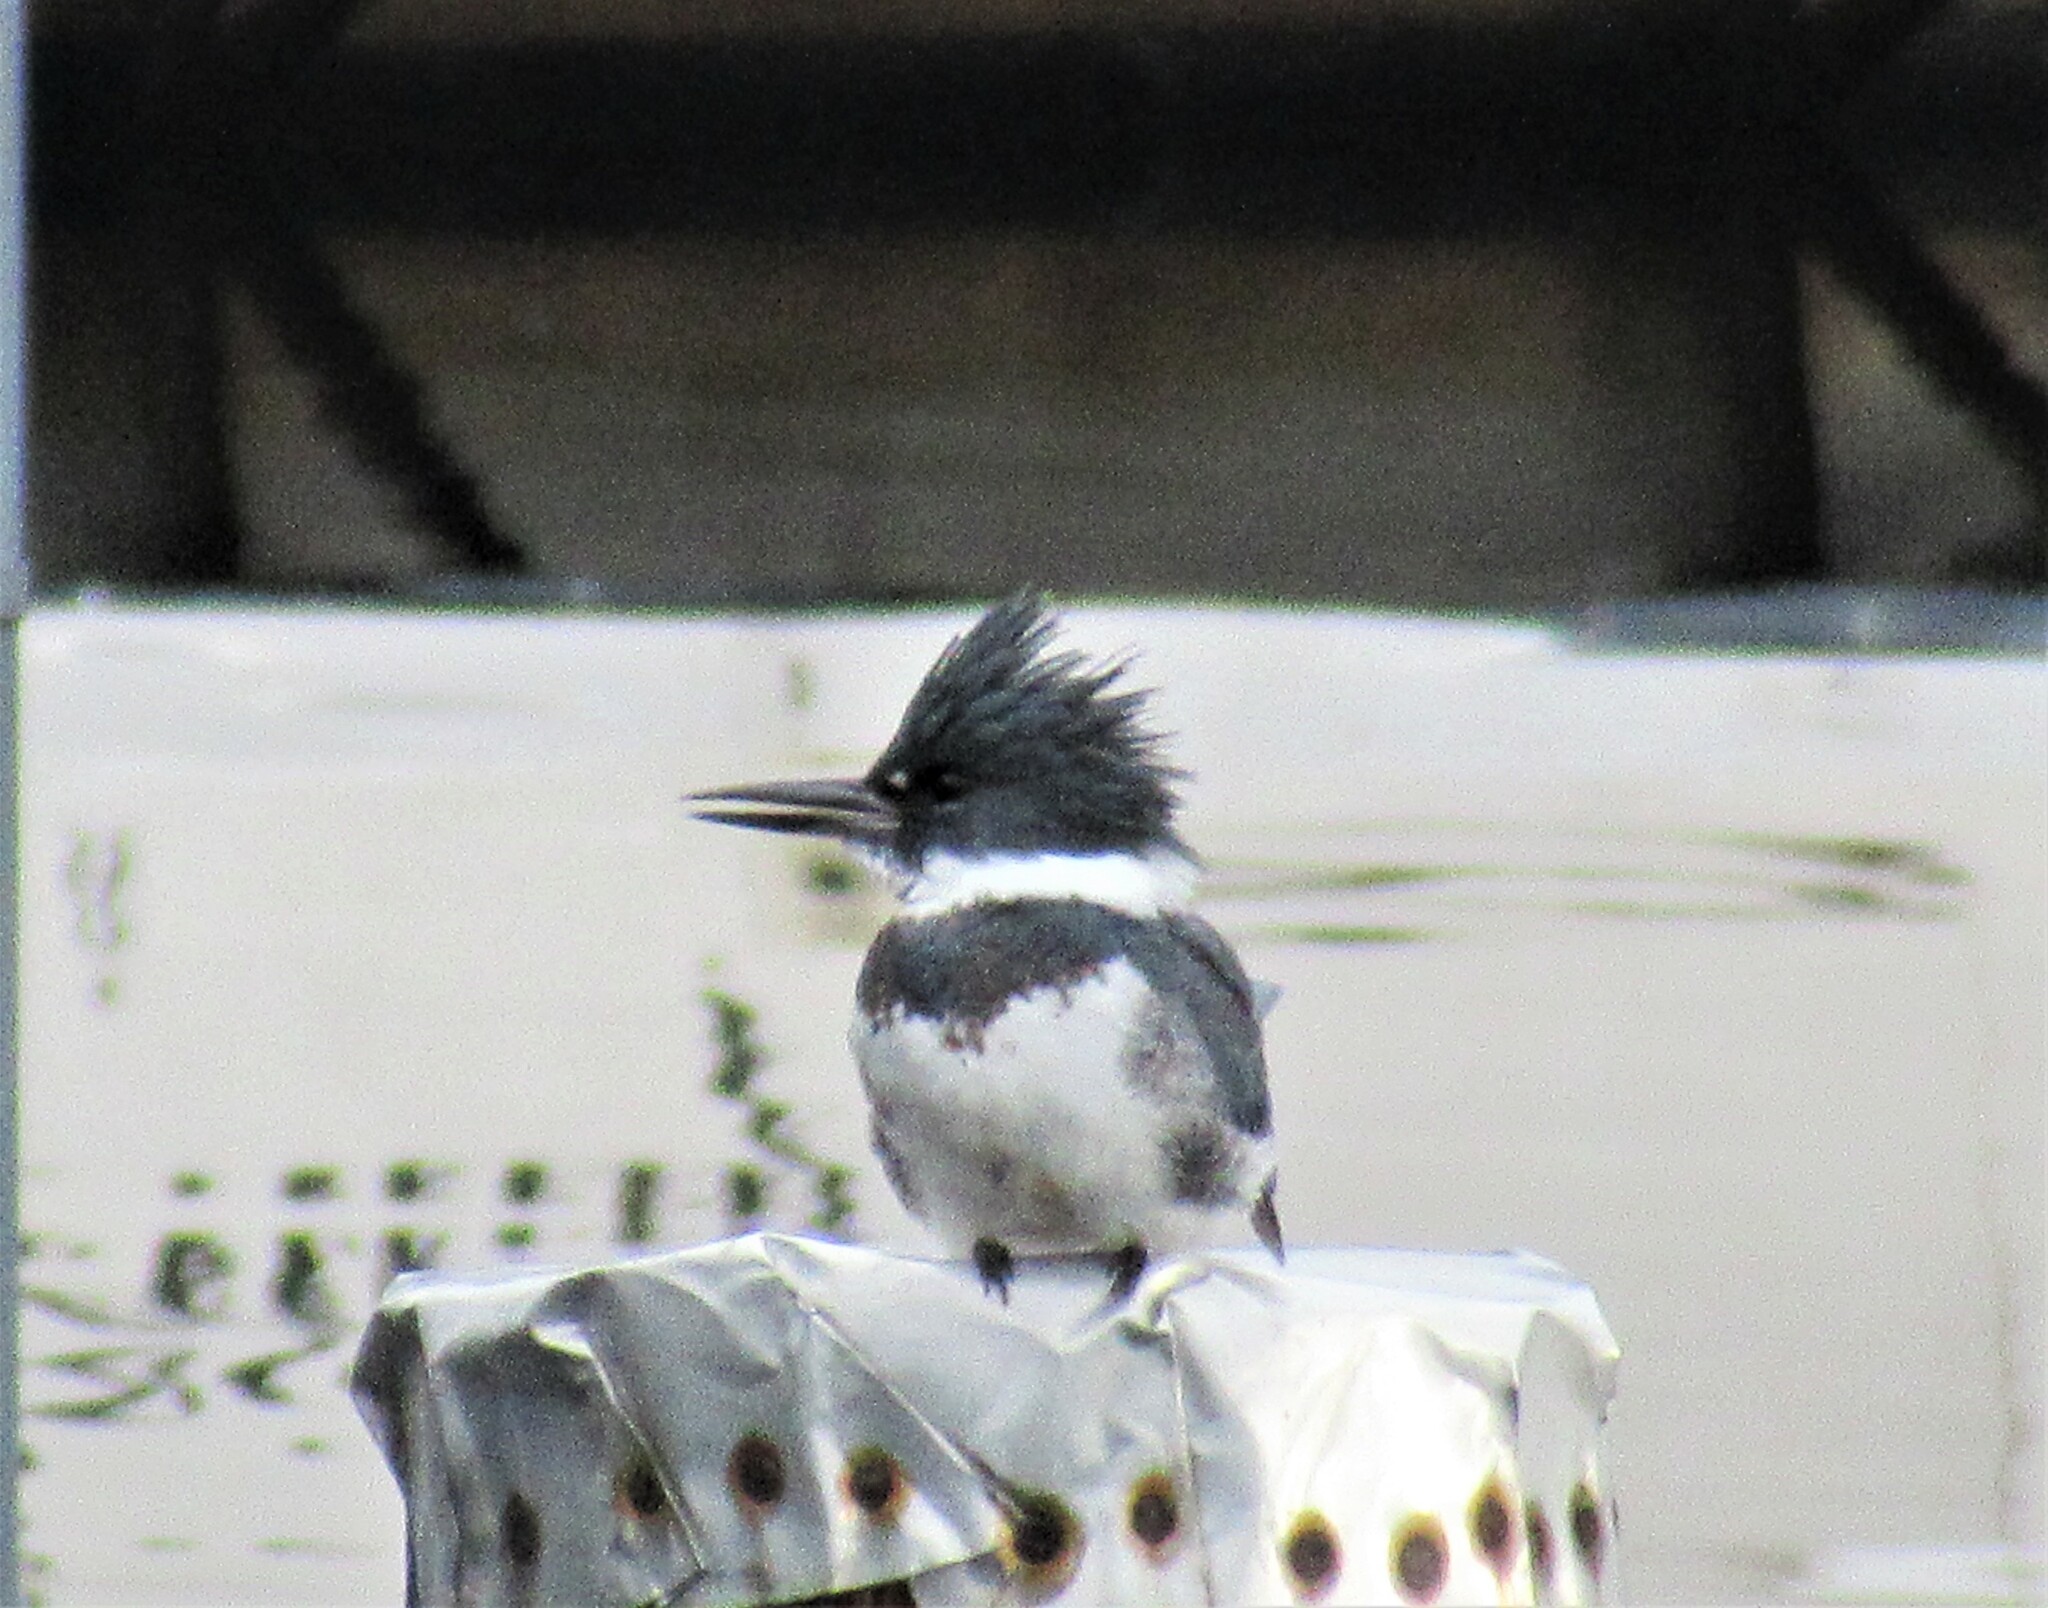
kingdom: Animalia
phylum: Chordata
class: Aves
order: Coraciiformes
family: Alcedinidae
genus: Megaceryle
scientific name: Megaceryle alcyon
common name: Belted kingfisher
